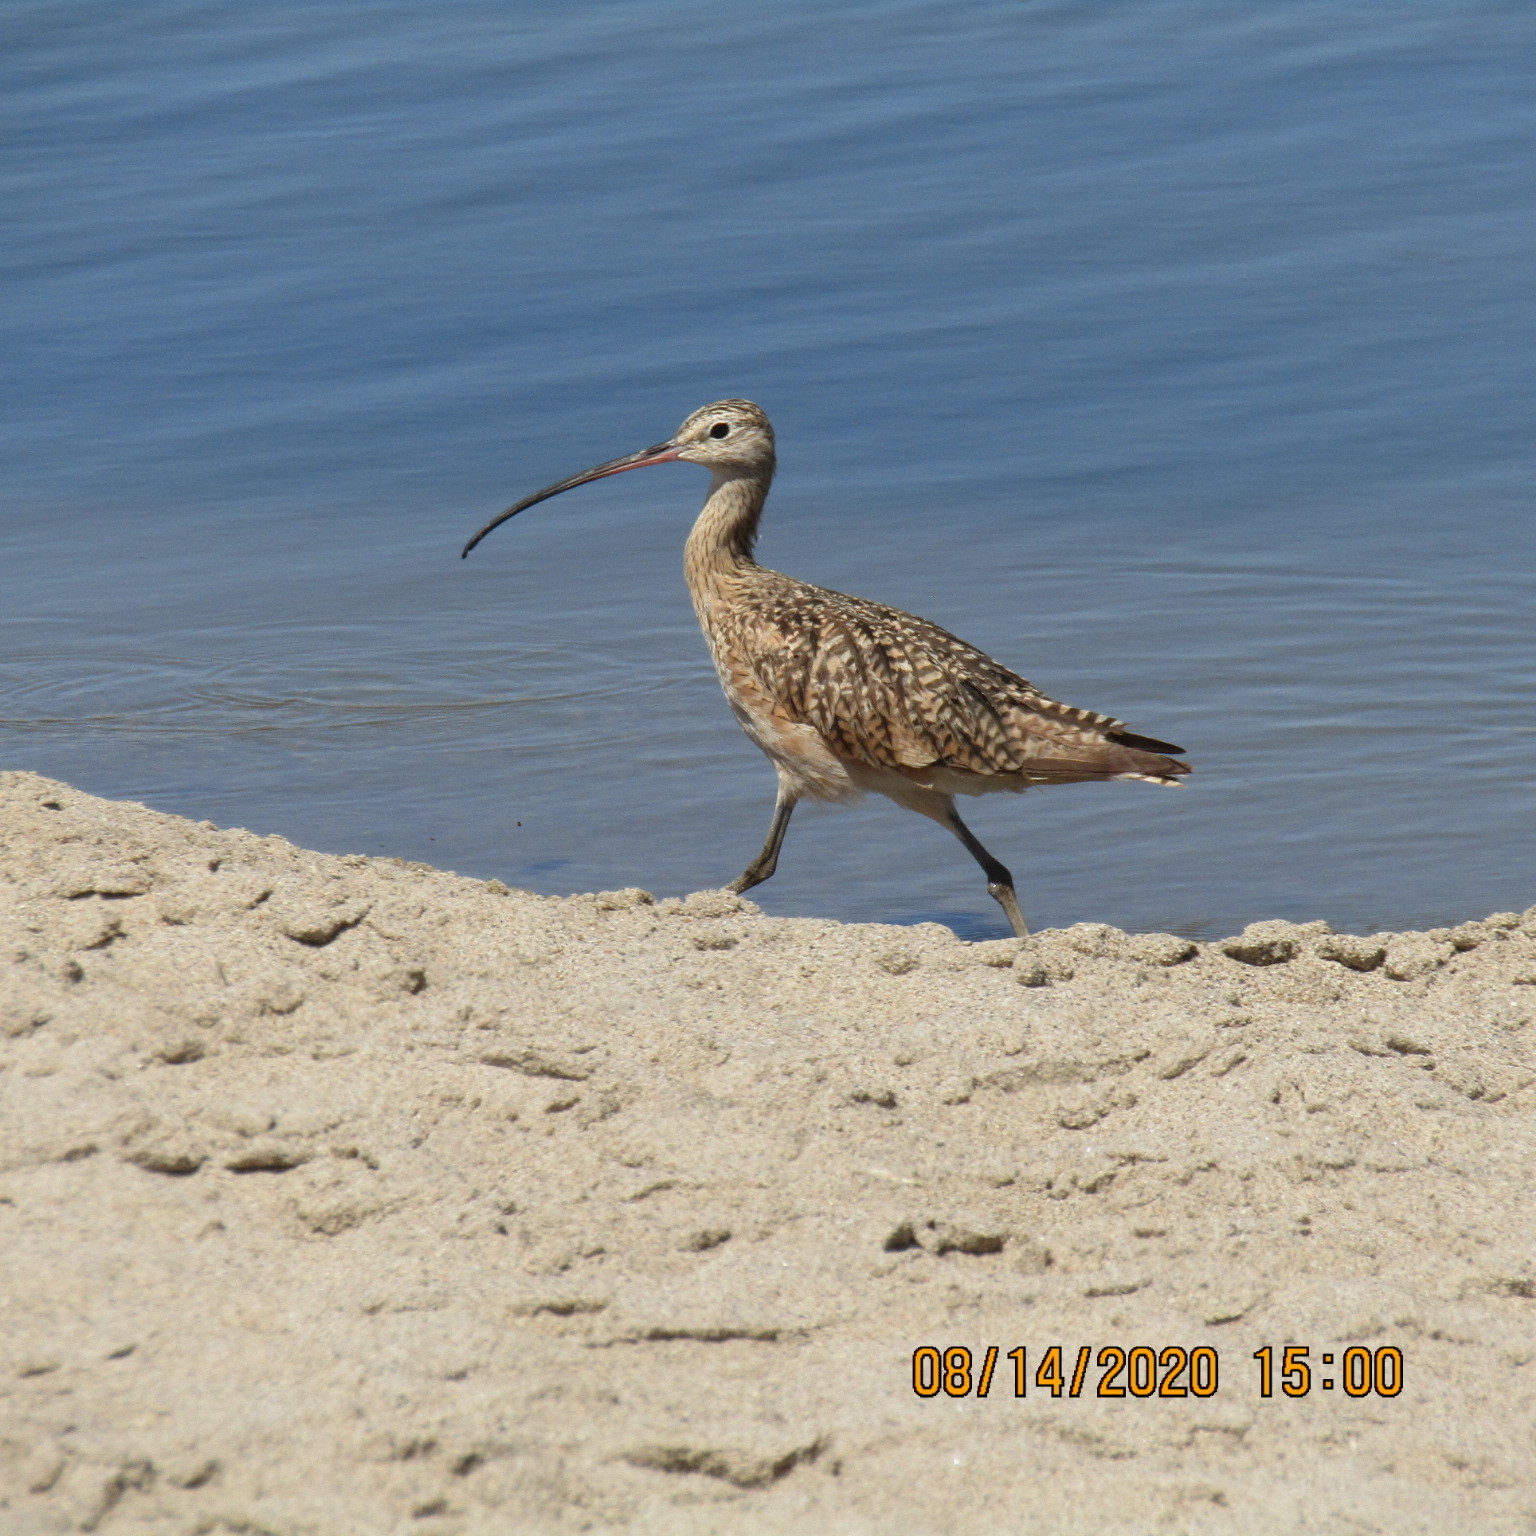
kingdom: Animalia
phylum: Chordata
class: Aves
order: Charadriiformes
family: Scolopacidae
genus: Numenius
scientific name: Numenius americanus
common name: Long-billed curlew
